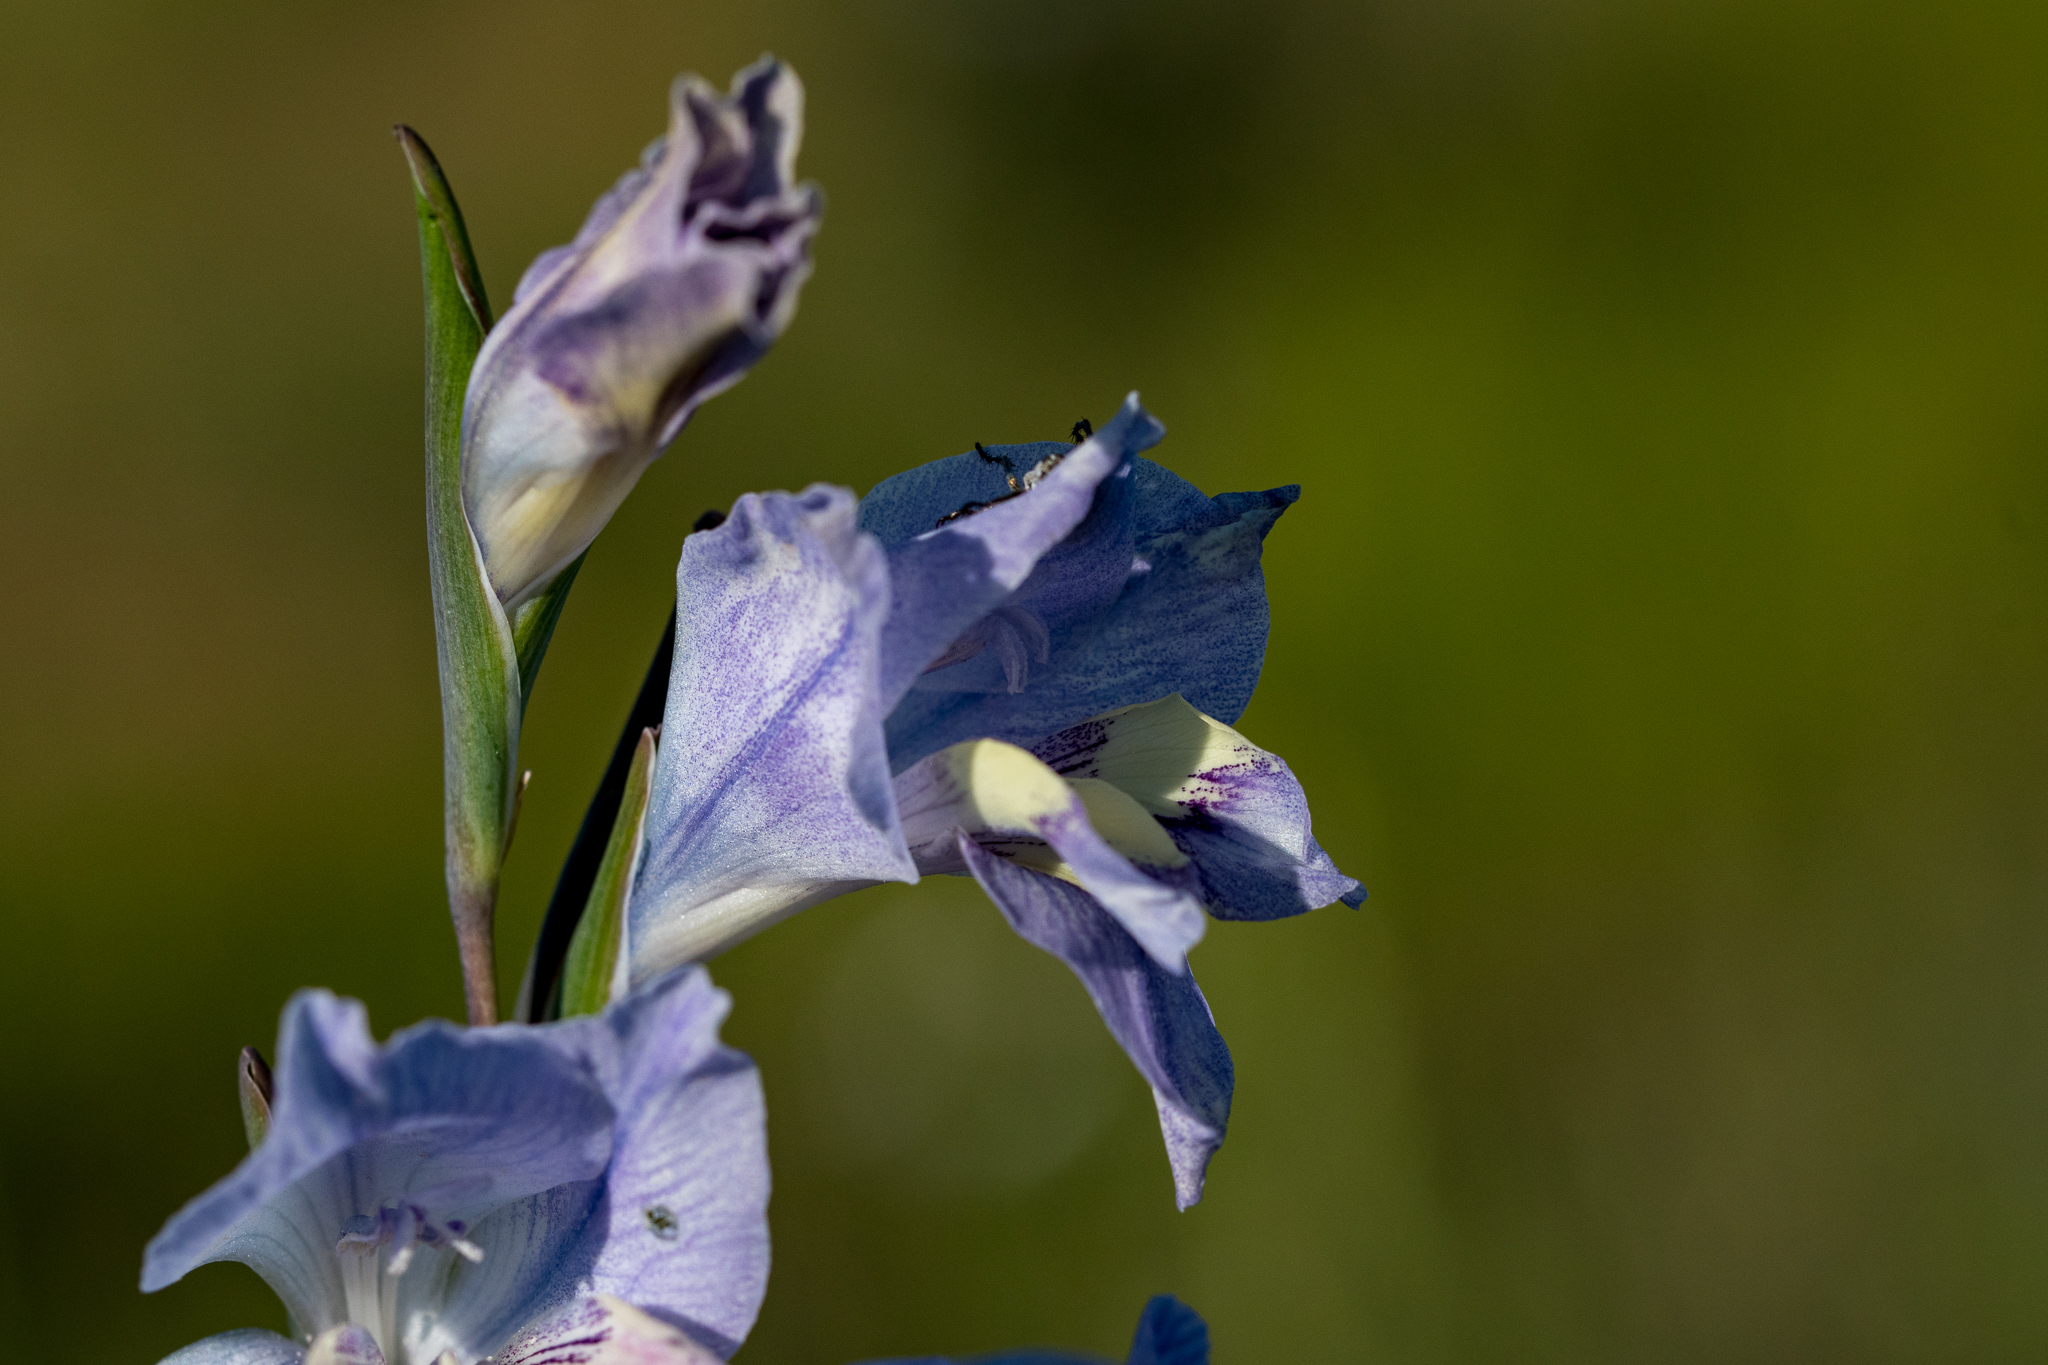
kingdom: Plantae
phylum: Tracheophyta
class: Liliopsida
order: Asparagales
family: Iridaceae
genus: Gladiolus
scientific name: Gladiolus carinatus
